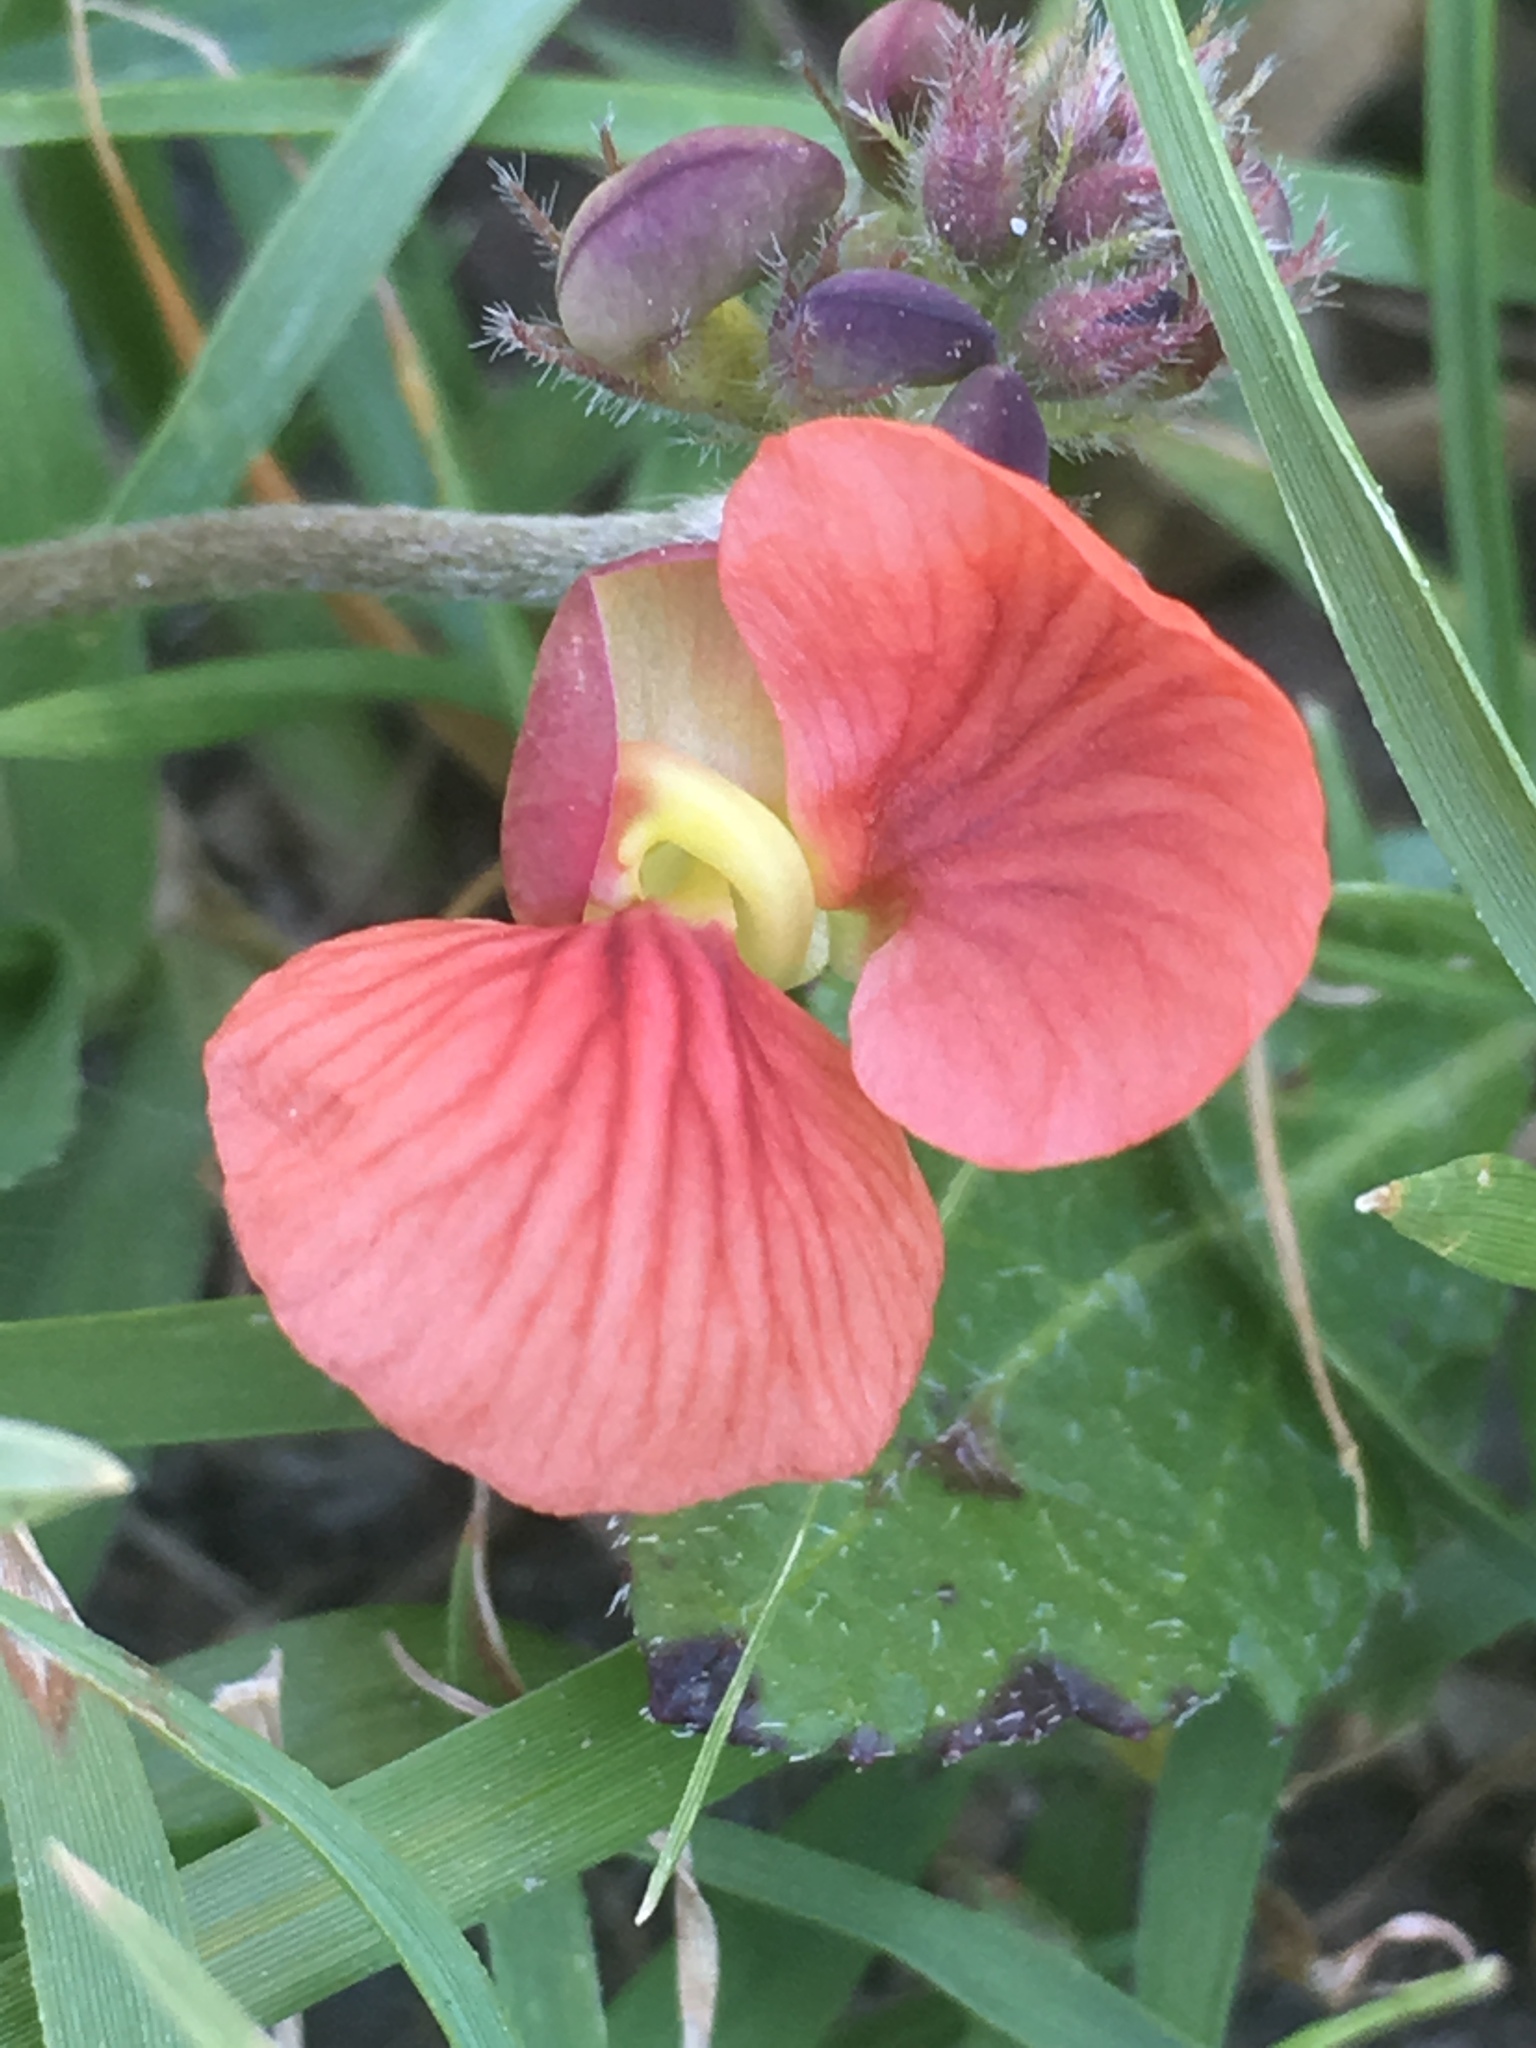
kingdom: Plantae
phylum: Tracheophyta
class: Magnoliopsida
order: Fabales
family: Fabaceae
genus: Macroptilium
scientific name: Macroptilium gibbosifolium
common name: Variableleaf bushbean
